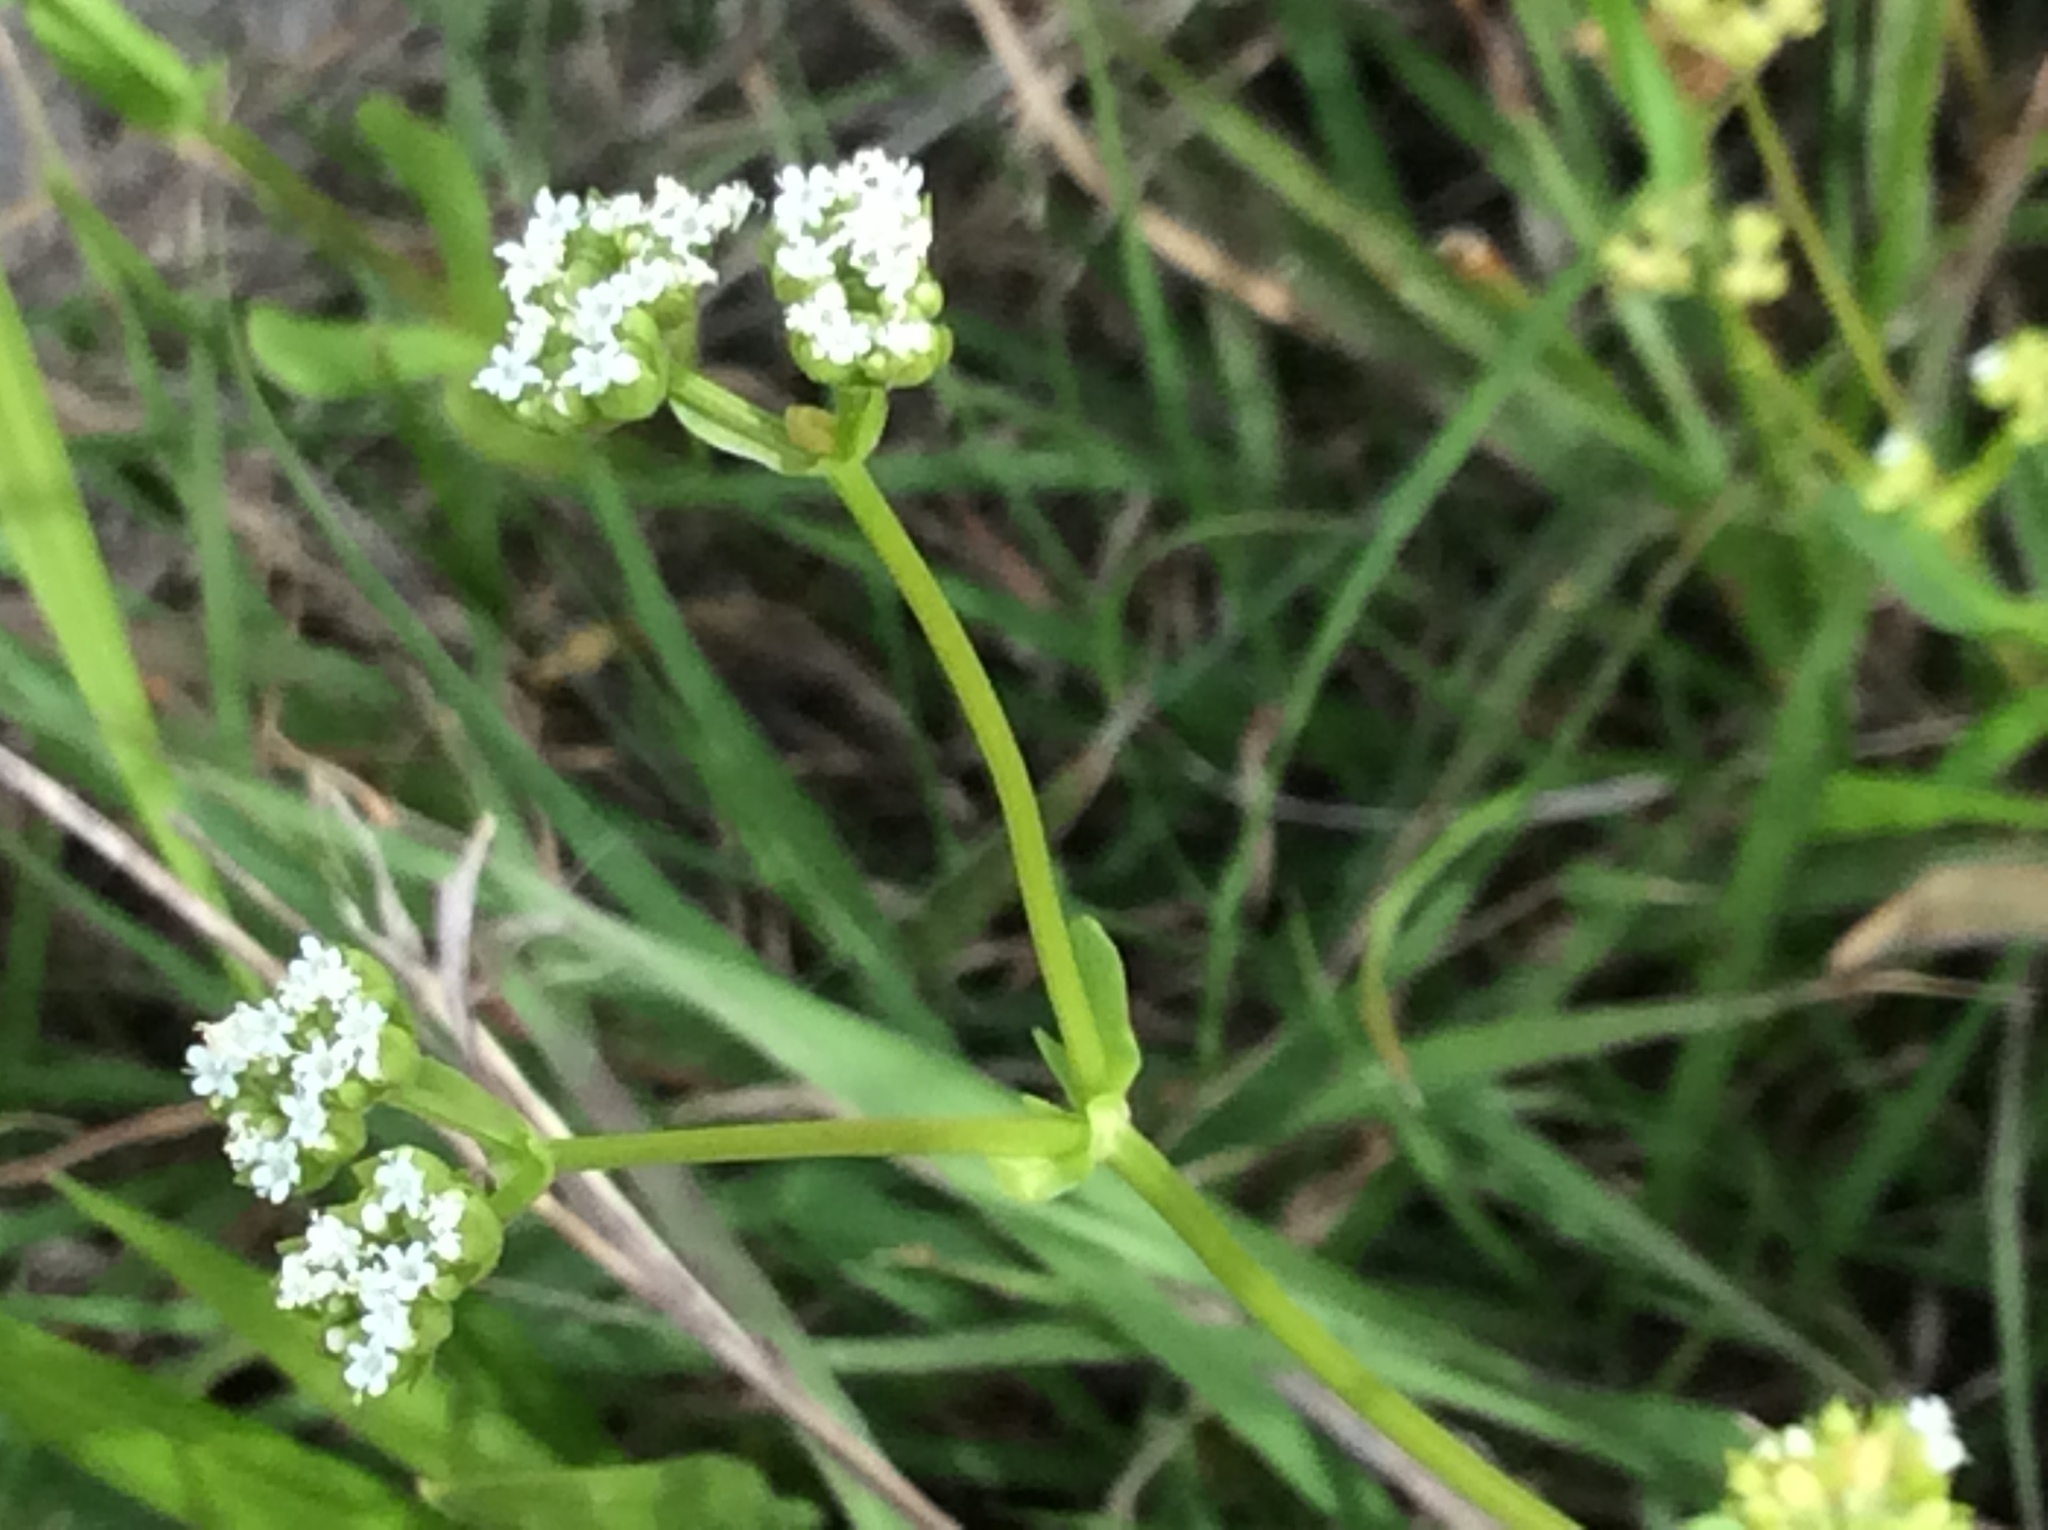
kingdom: Plantae
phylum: Tracheophyta
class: Magnoliopsida
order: Dipsacales
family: Caprifoliaceae
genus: Valerianella
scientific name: Valerianella radiata
